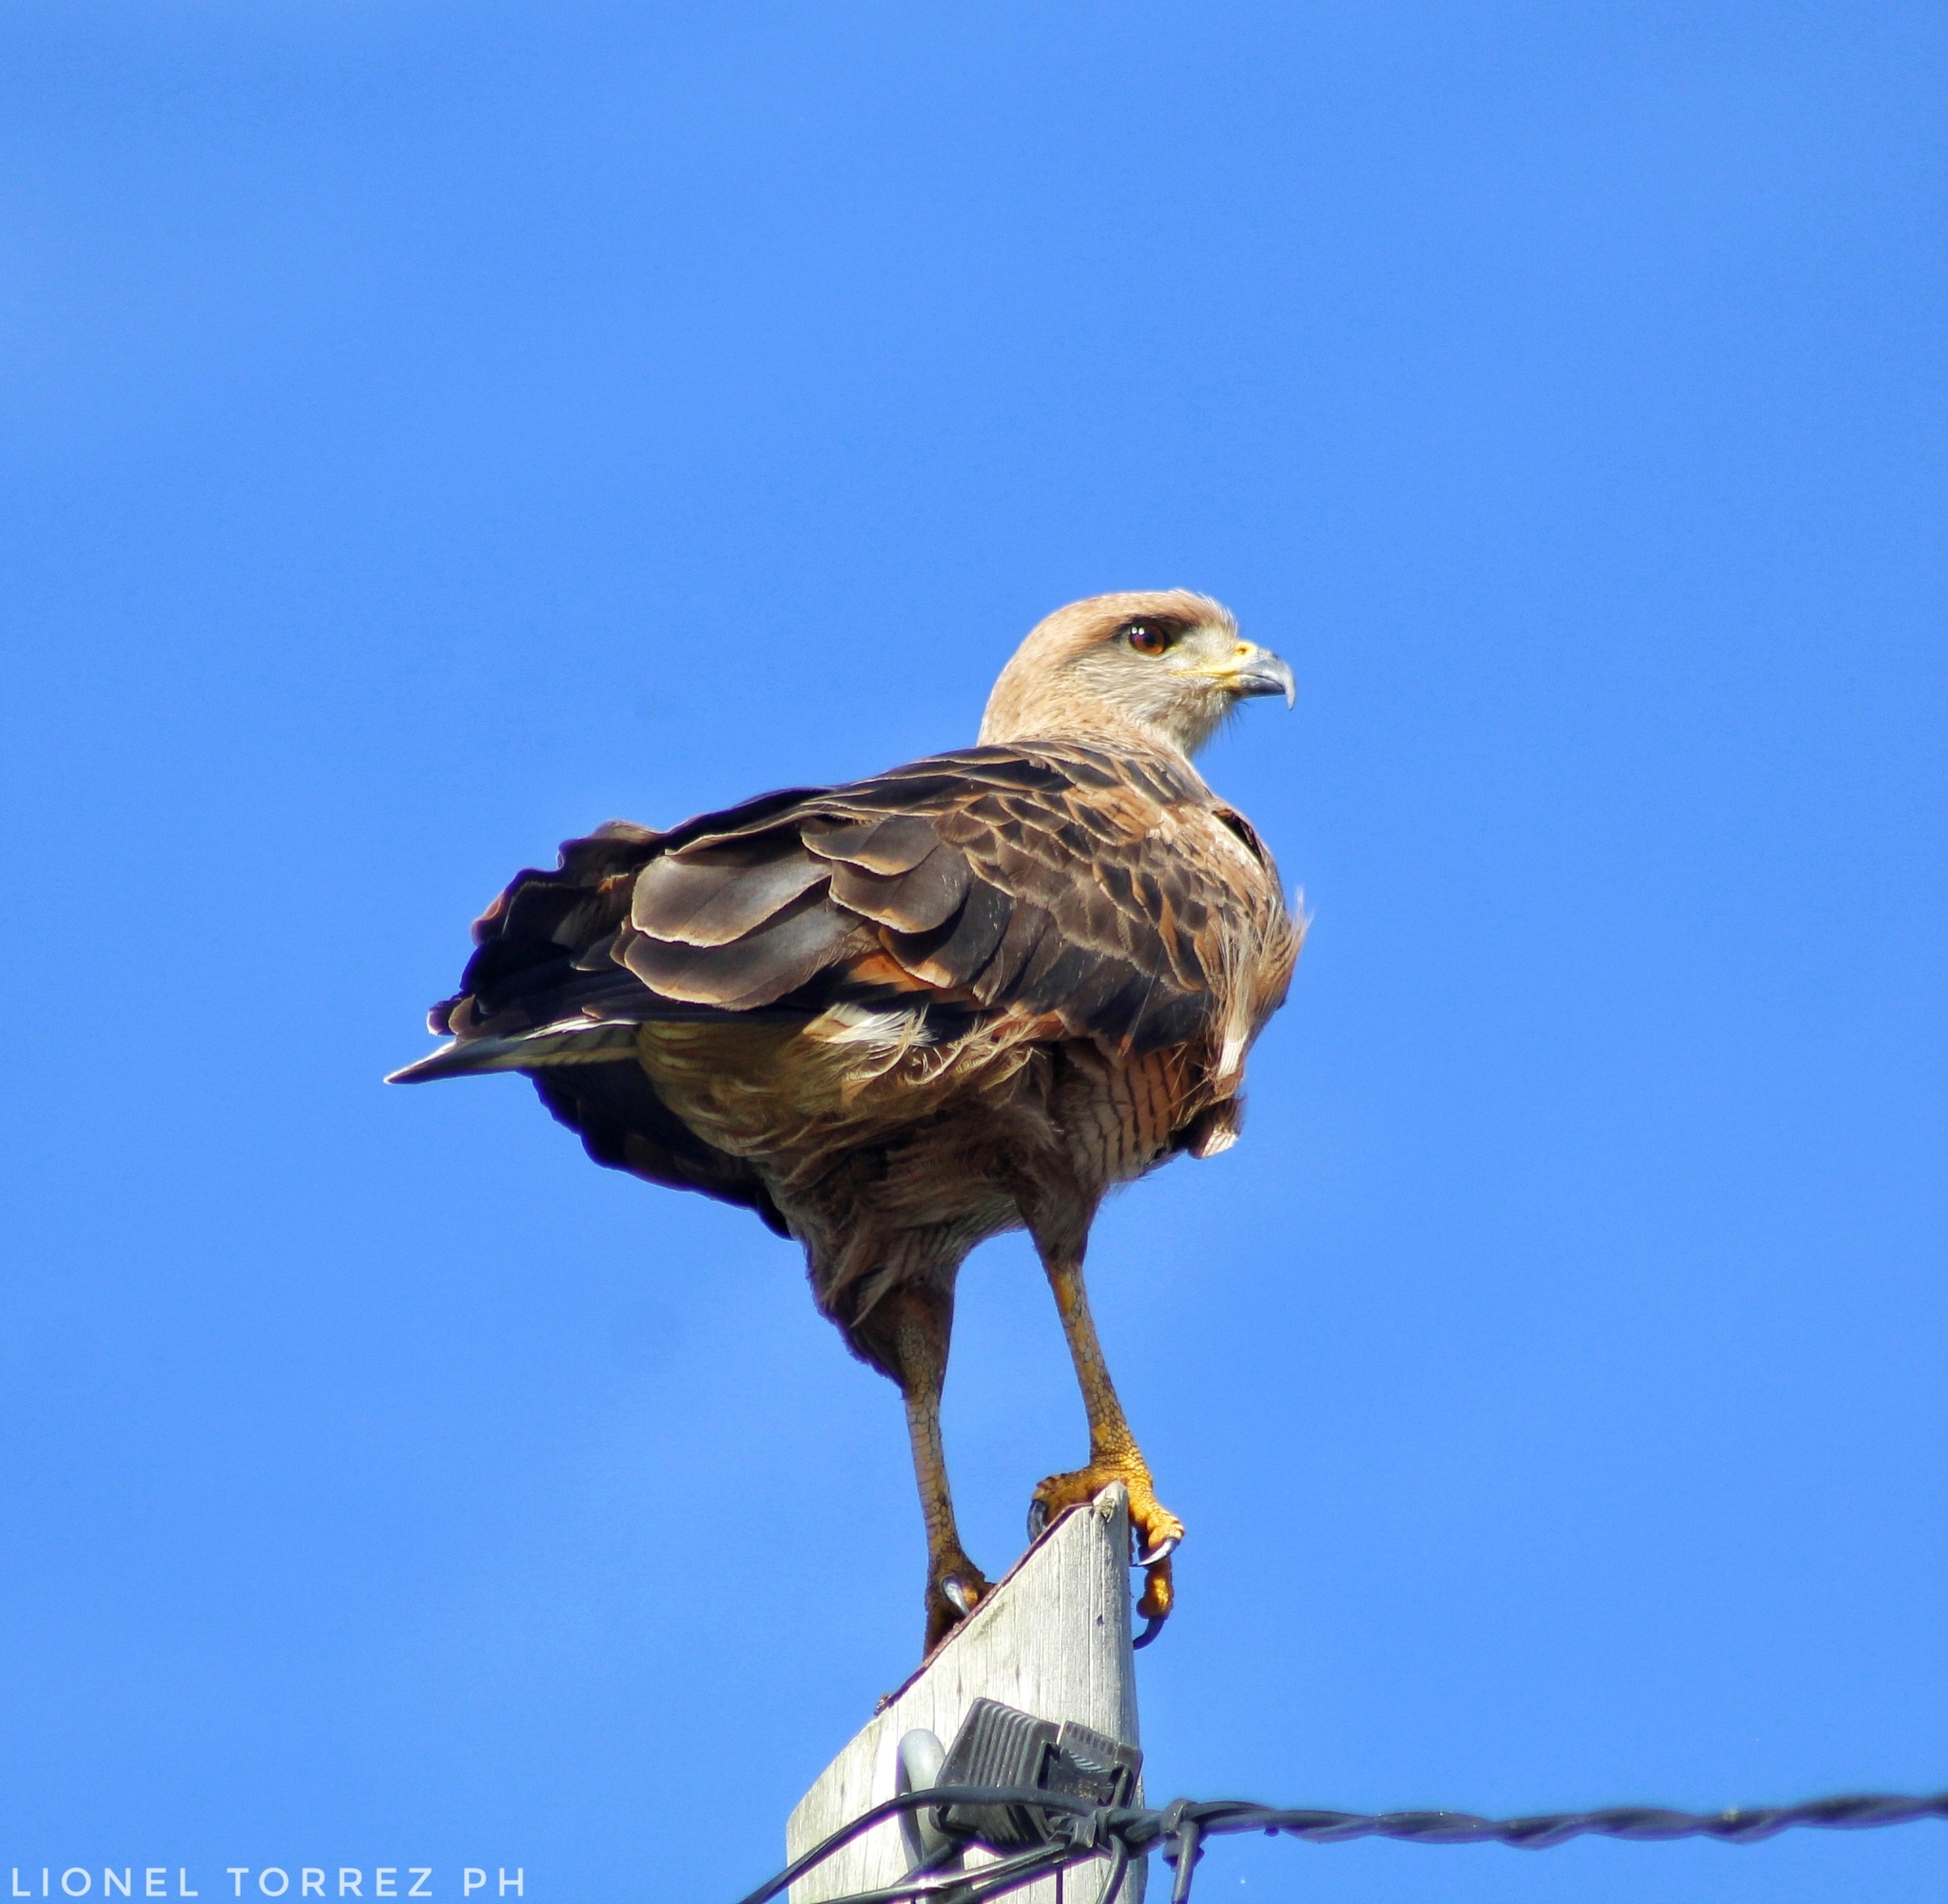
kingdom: Animalia
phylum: Chordata
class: Aves
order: Accipitriformes
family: Accipitridae
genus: Buteogallus
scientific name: Buteogallus meridionalis
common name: Savanna hawk
